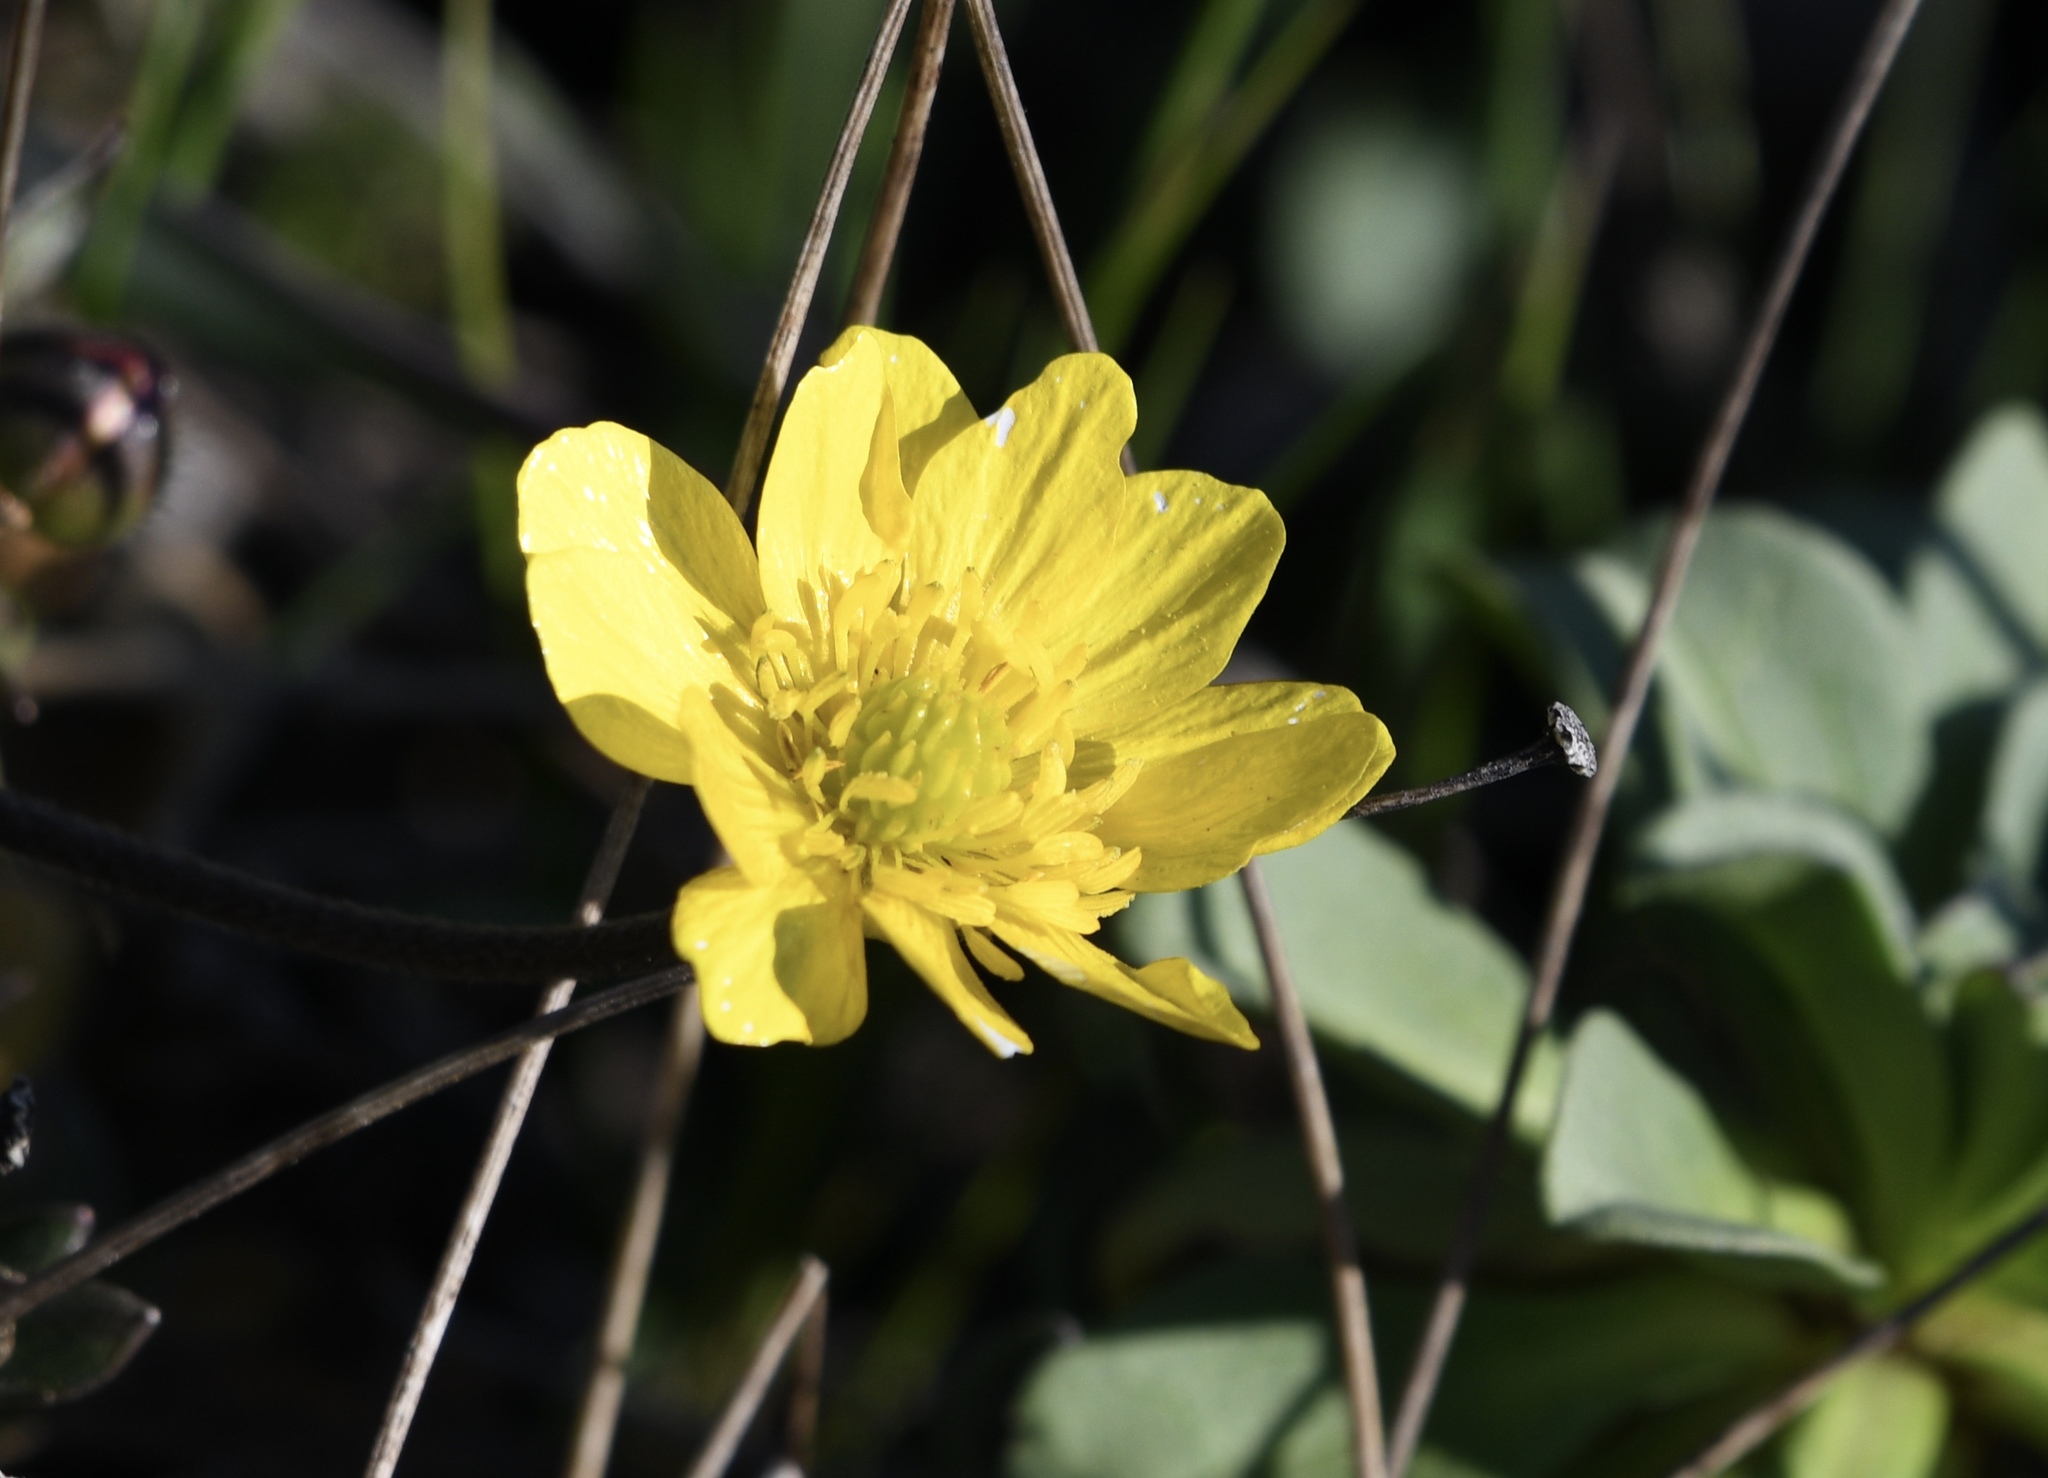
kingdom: Plantae
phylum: Tracheophyta
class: Magnoliopsida
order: Ranunculales
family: Ranunculaceae
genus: Ranunculus
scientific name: Ranunculus californicus
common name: California buttercup
